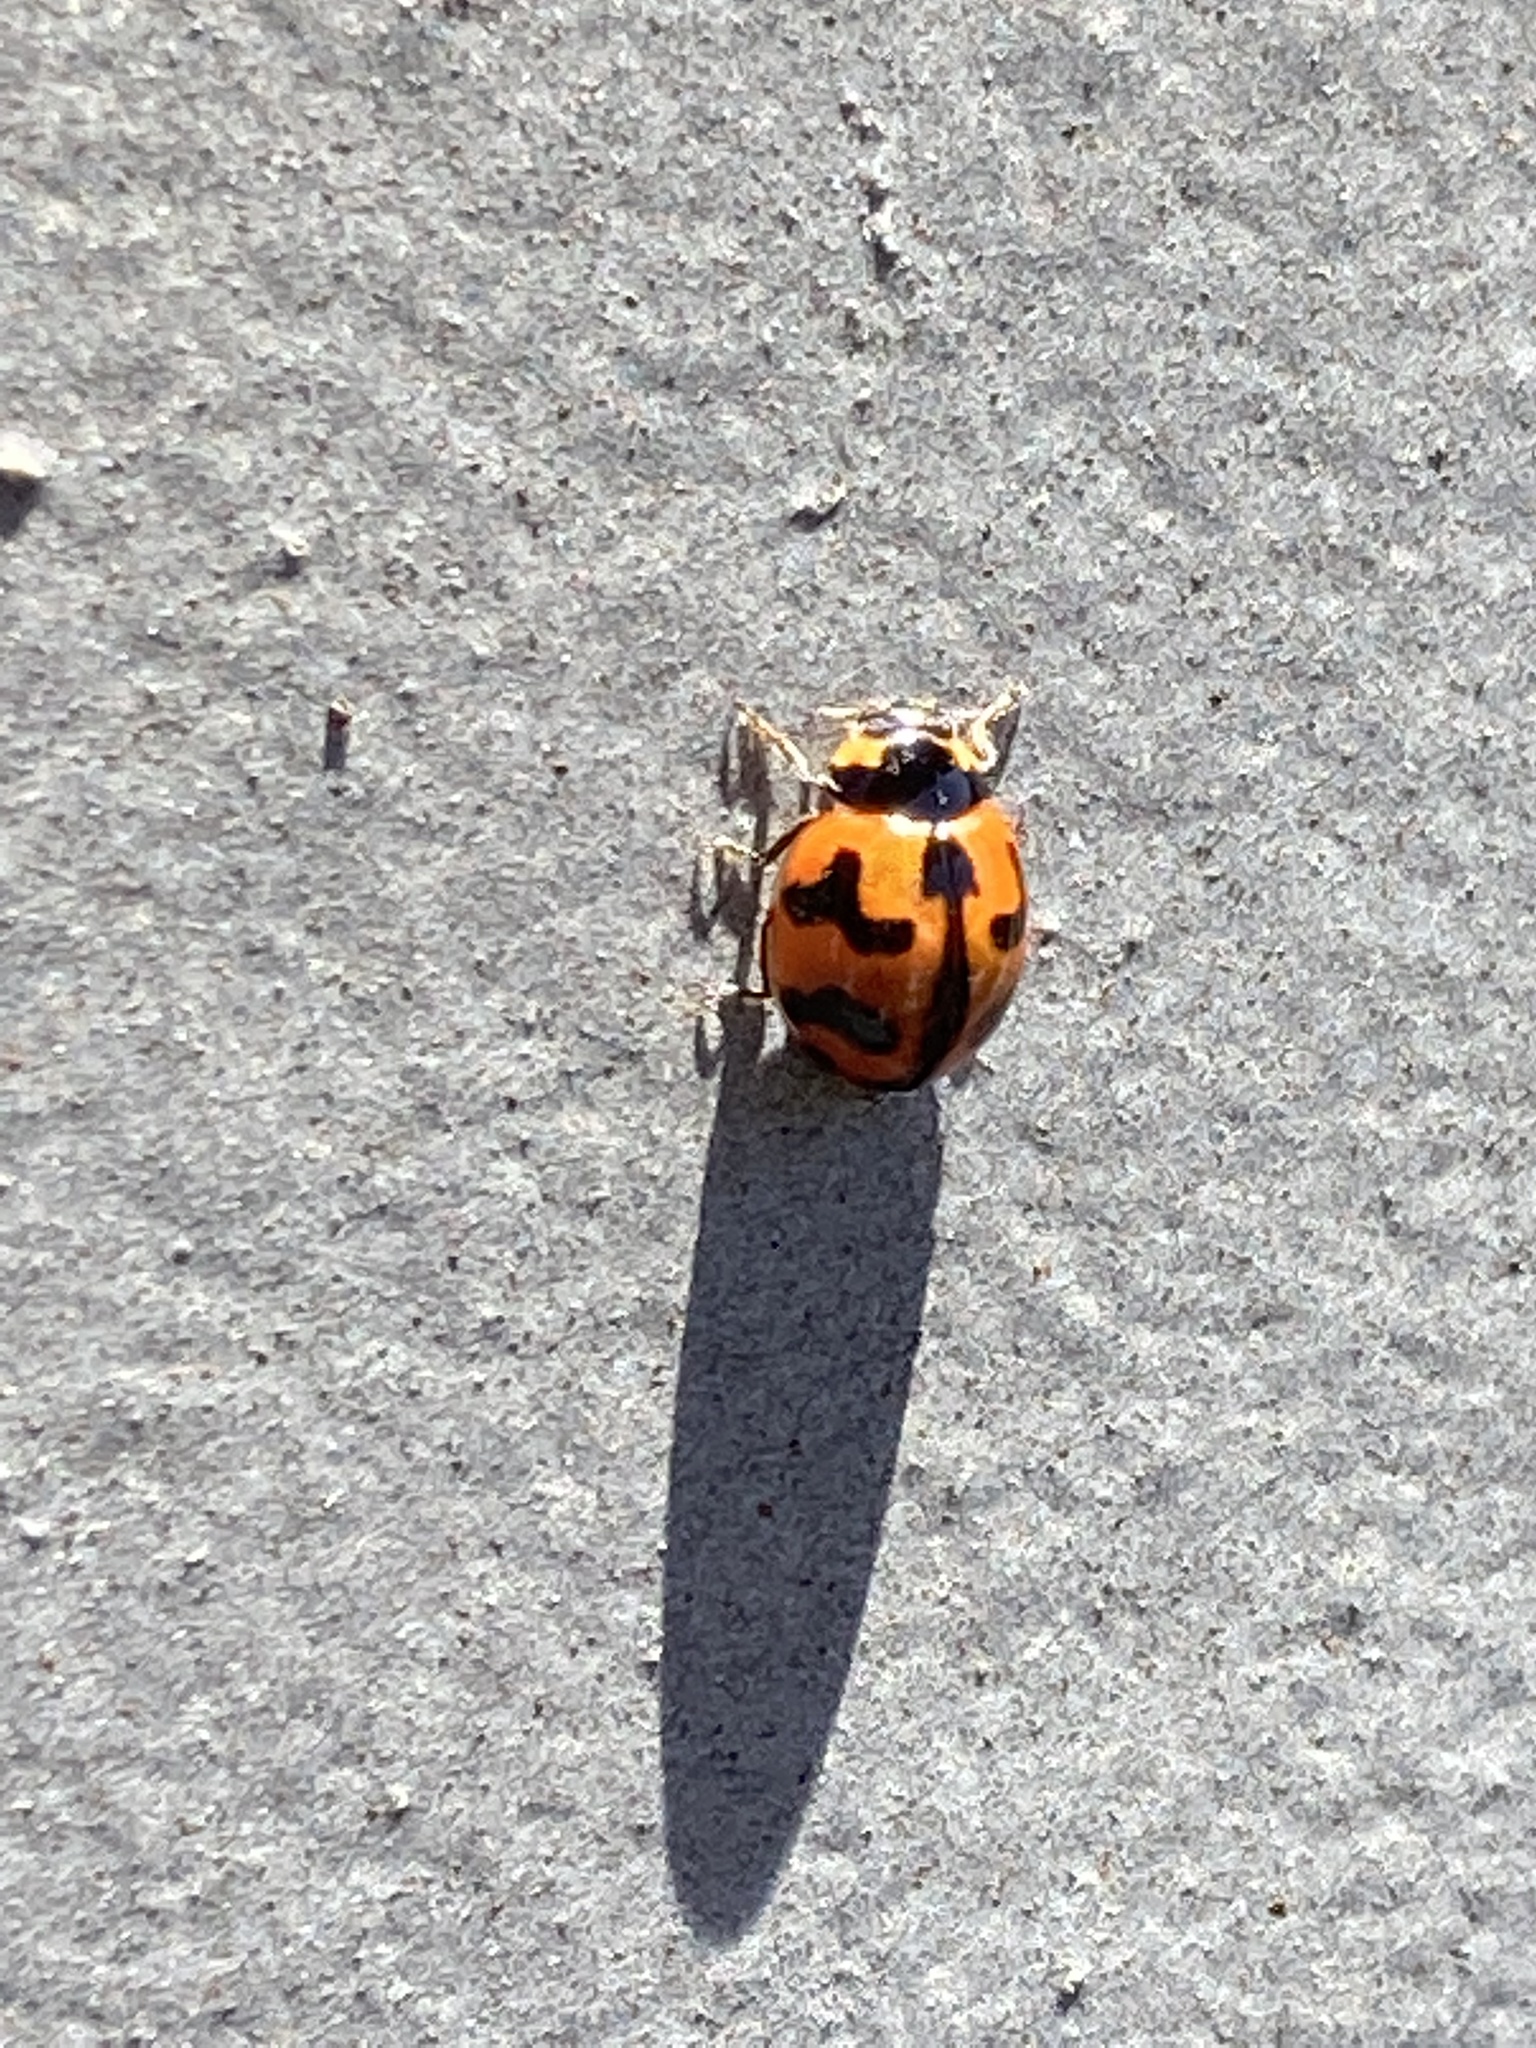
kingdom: Animalia
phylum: Arthropoda
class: Insecta
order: Coleoptera
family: Coccinellidae
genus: Coccinella
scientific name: Coccinella transversalis
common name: Transverse lady beetle
